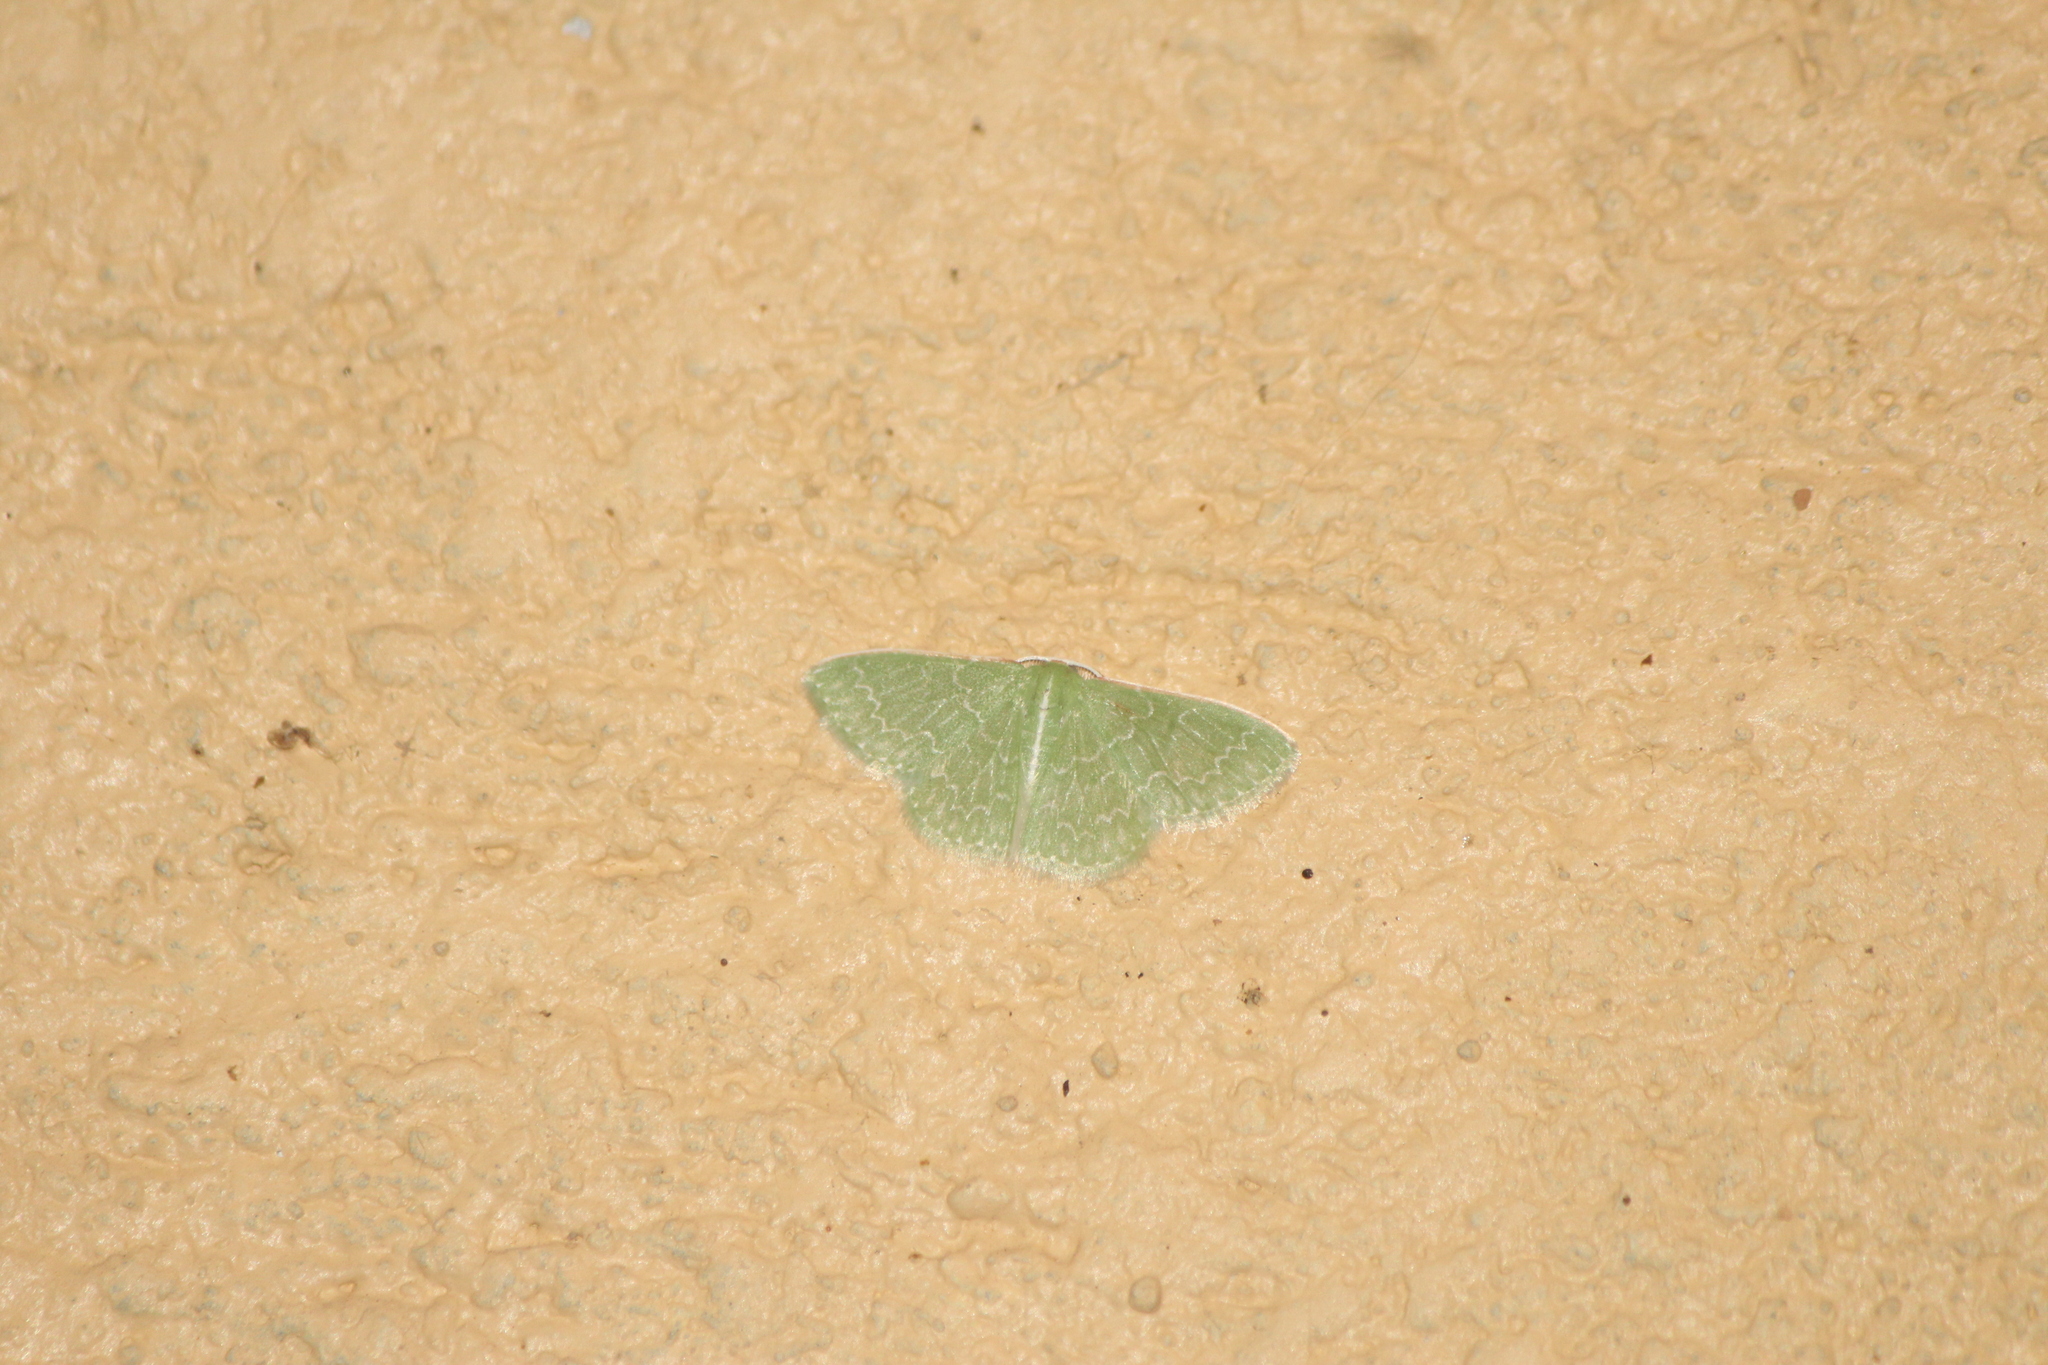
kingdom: Animalia
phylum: Arthropoda
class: Insecta
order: Lepidoptera
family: Geometridae
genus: Synchlora
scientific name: Synchlora frondaria
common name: Southern emerald
